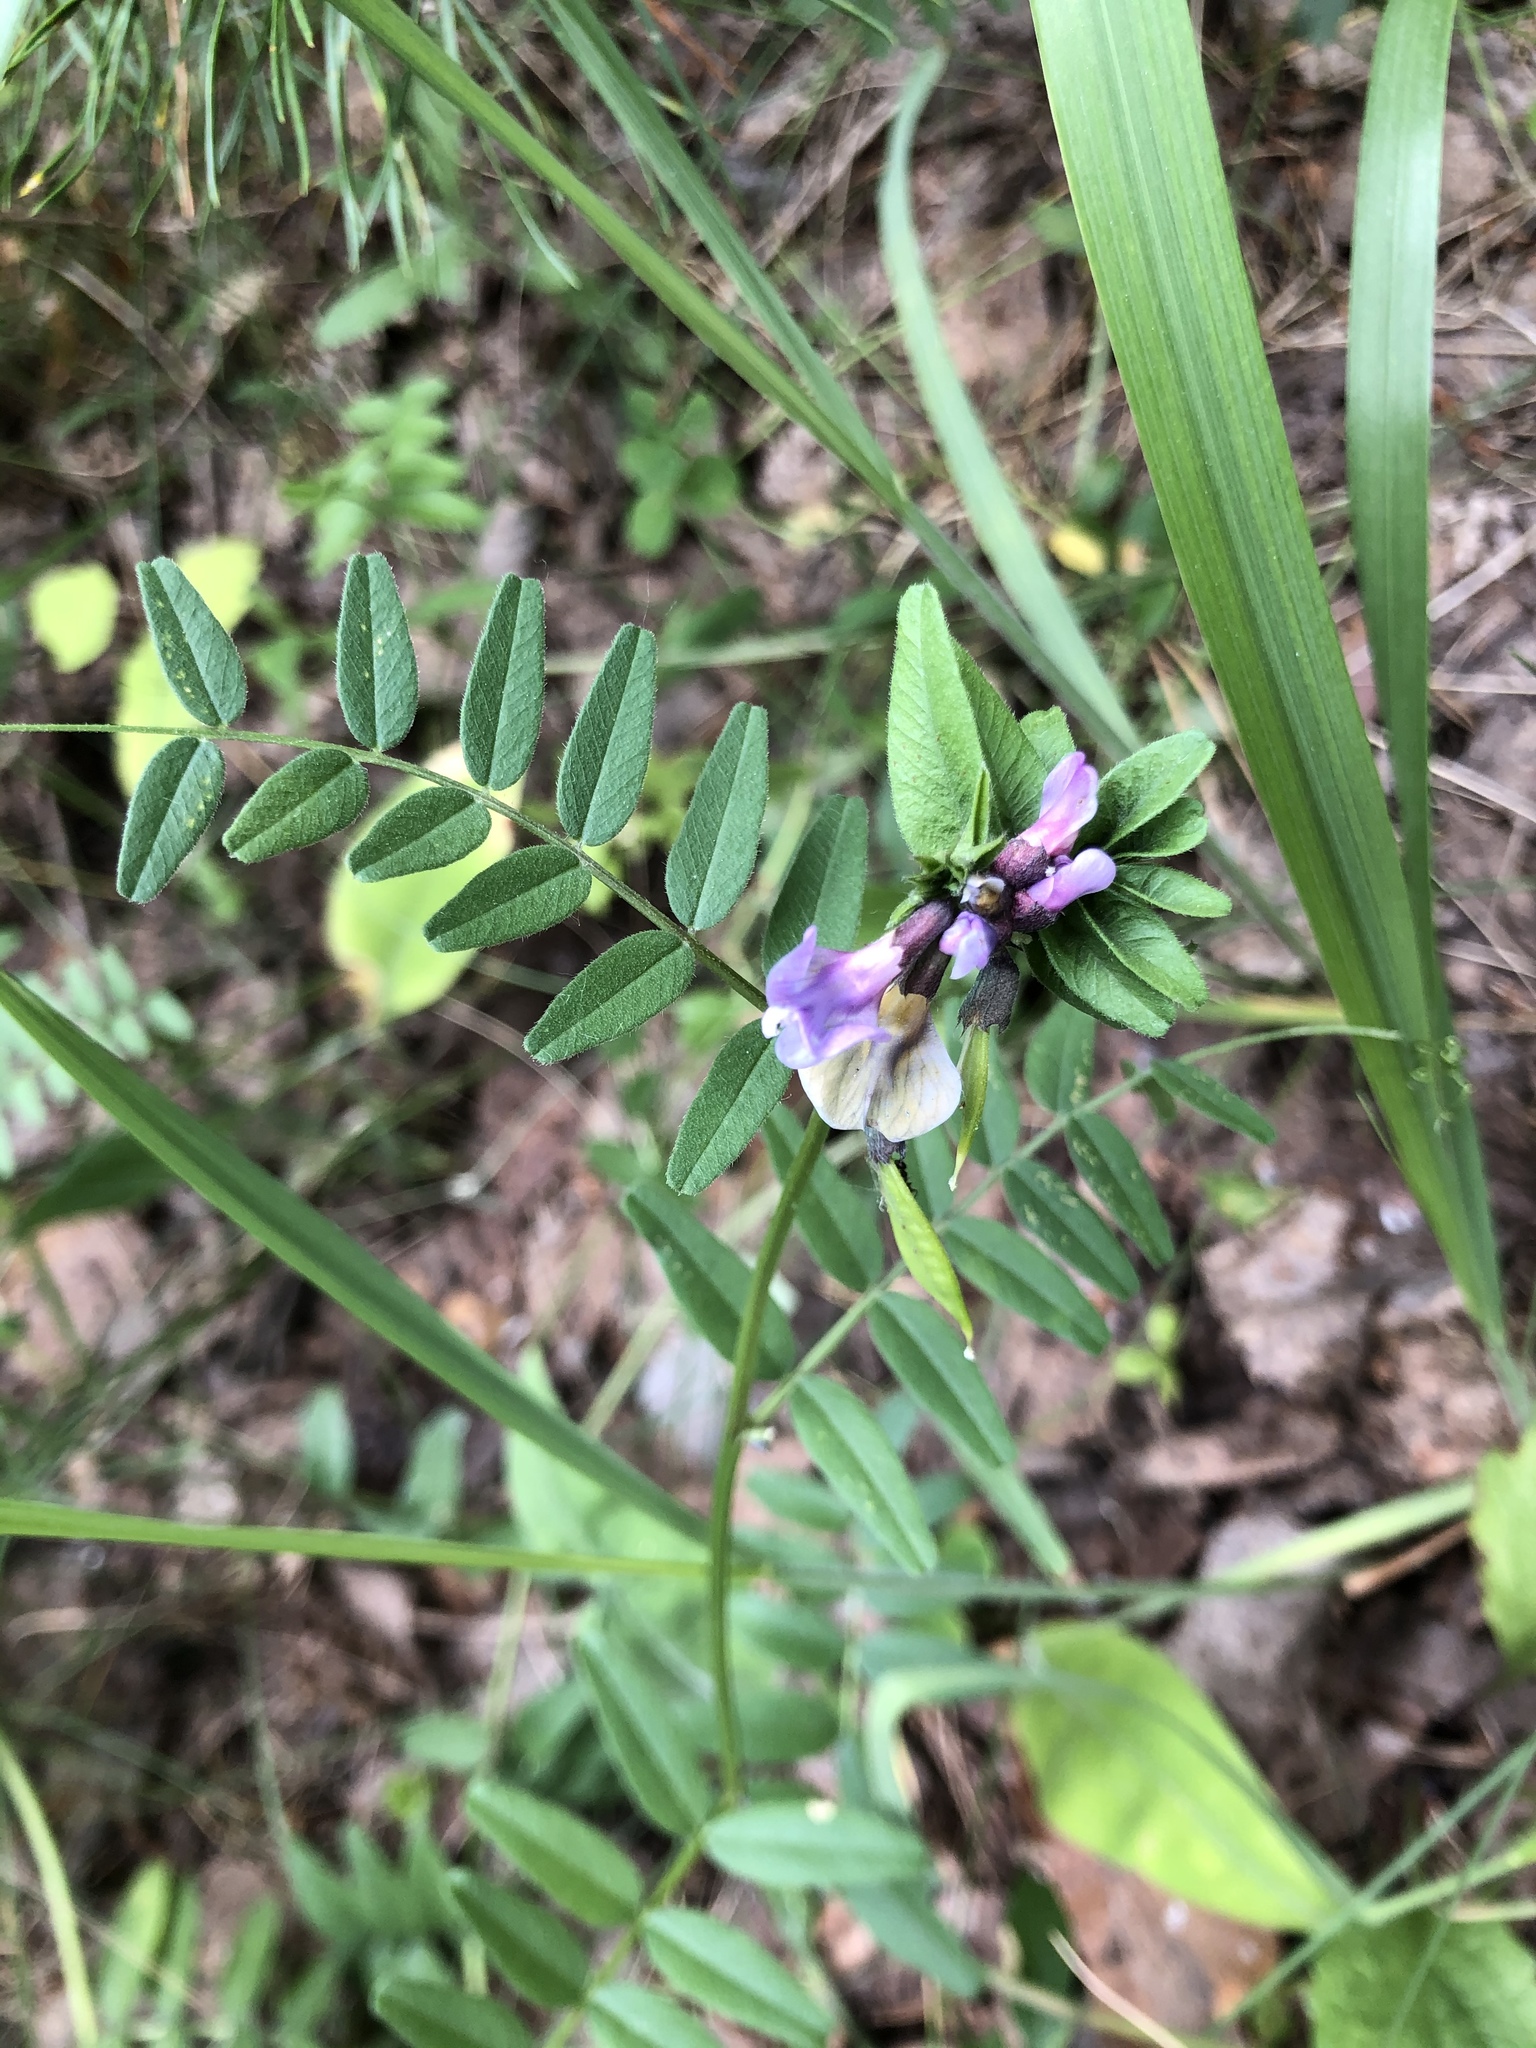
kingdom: Plantae
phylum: Tracheophyta
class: Magnoliopsida
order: Fabales
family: Fabaceae
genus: Vicia
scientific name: Vicia sepium
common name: Bush vetch
